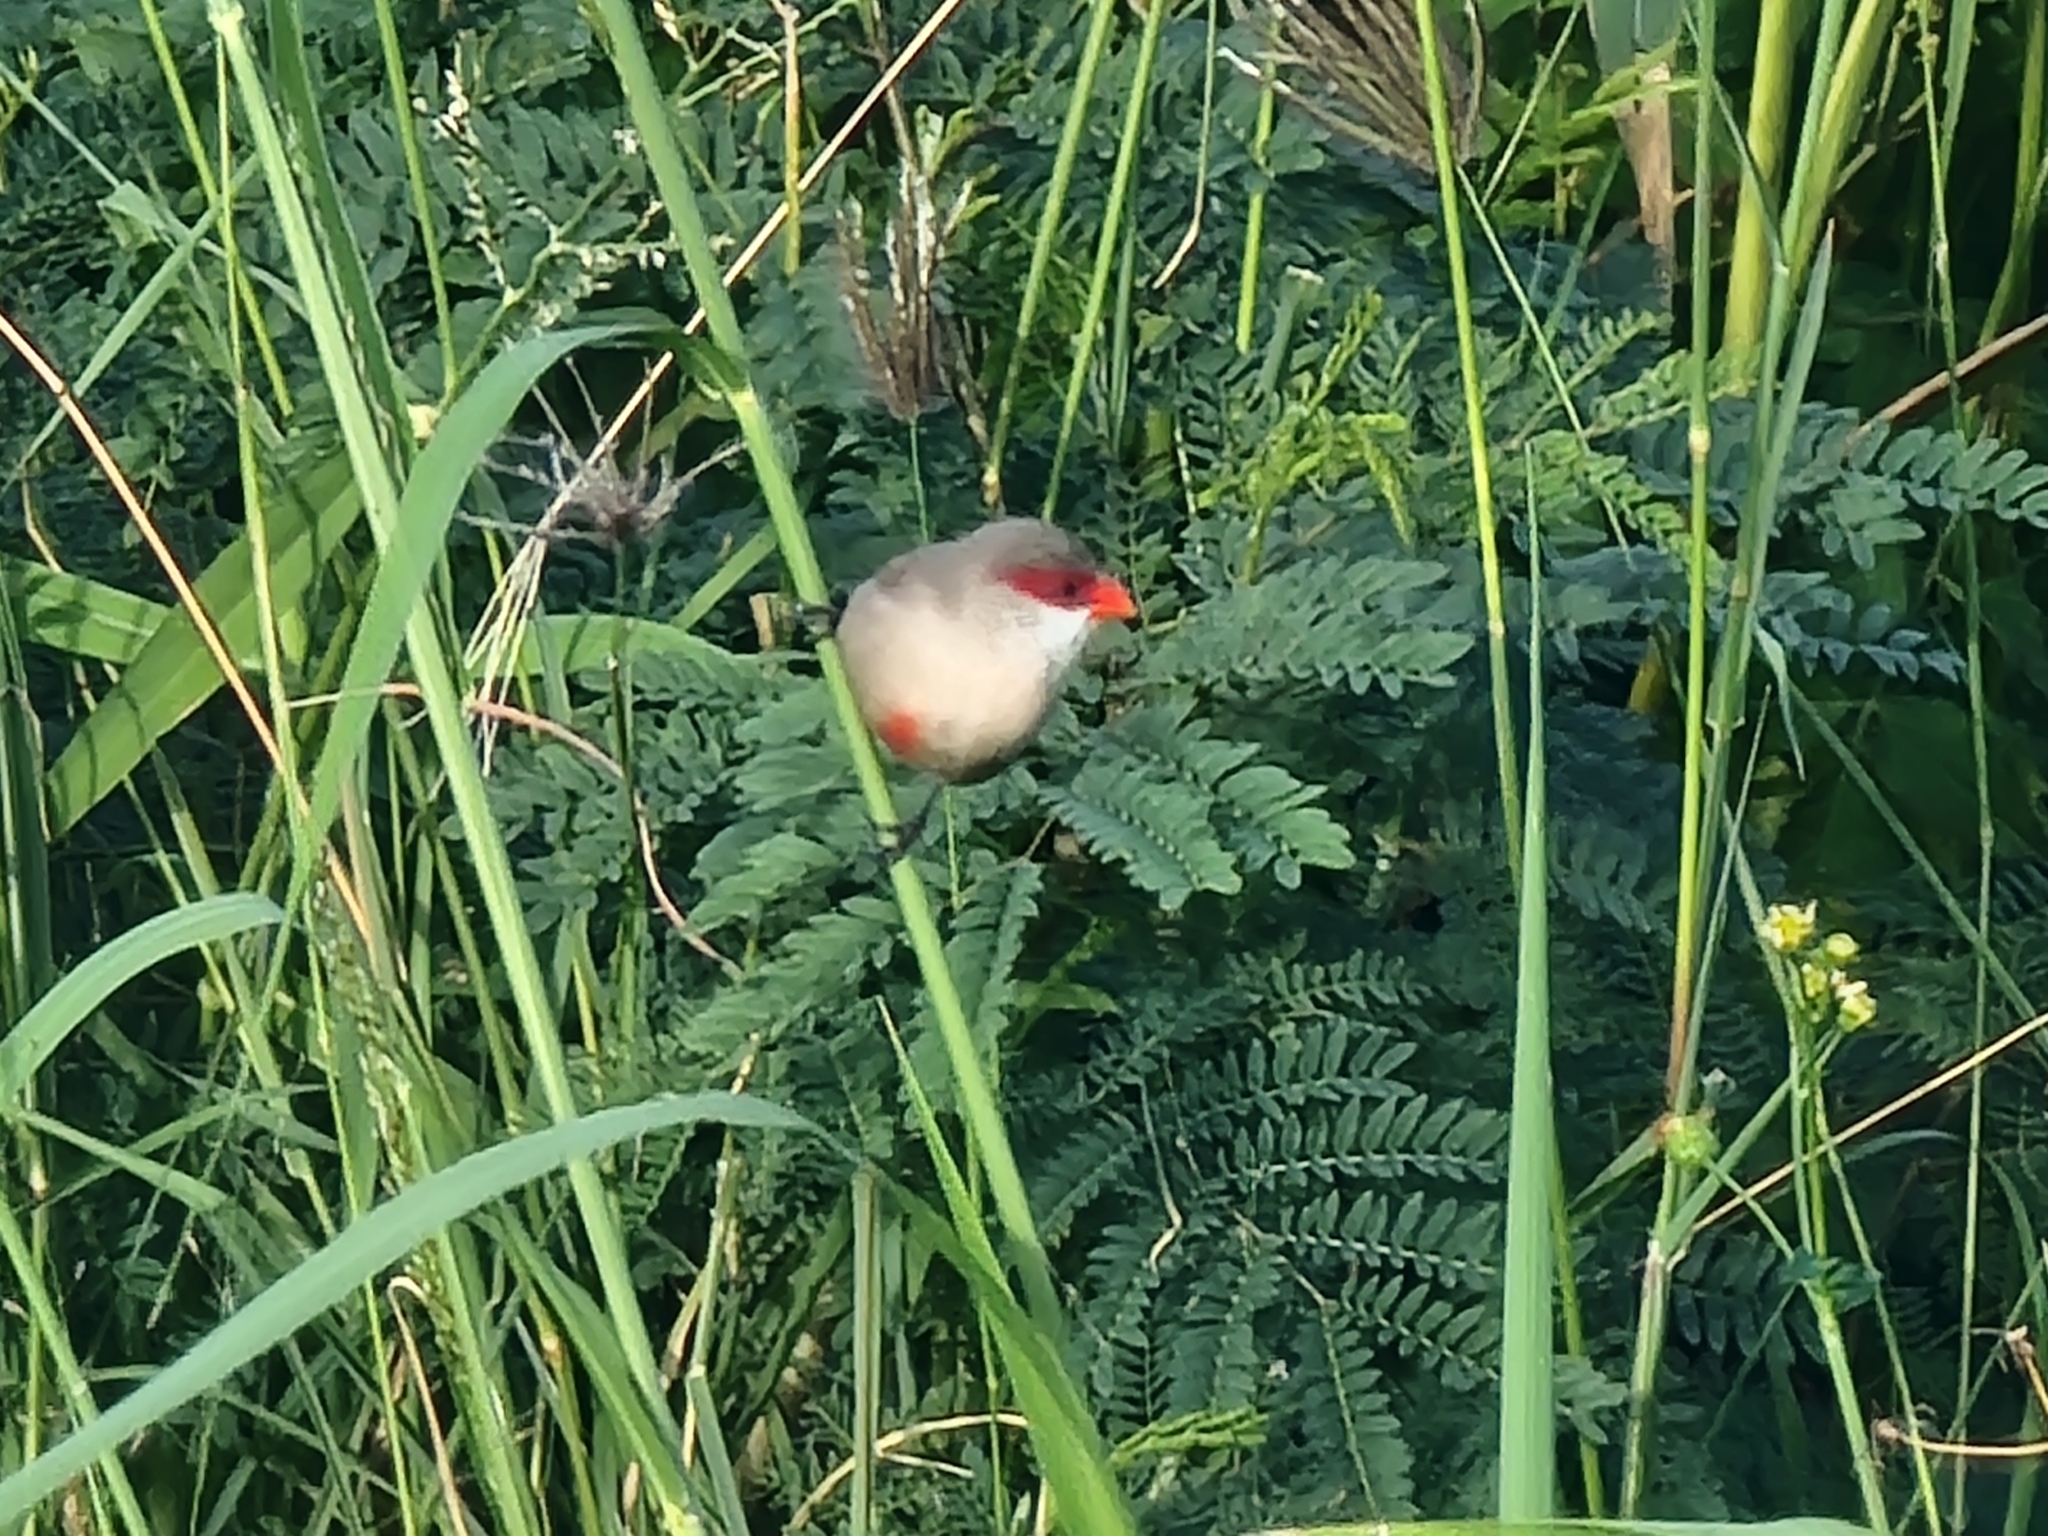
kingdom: Animalia
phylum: Chordata
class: Aves
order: Passeriformes
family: Estrildidae
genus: Estrilda
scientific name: Estrilda astrild
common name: Common waxbill
